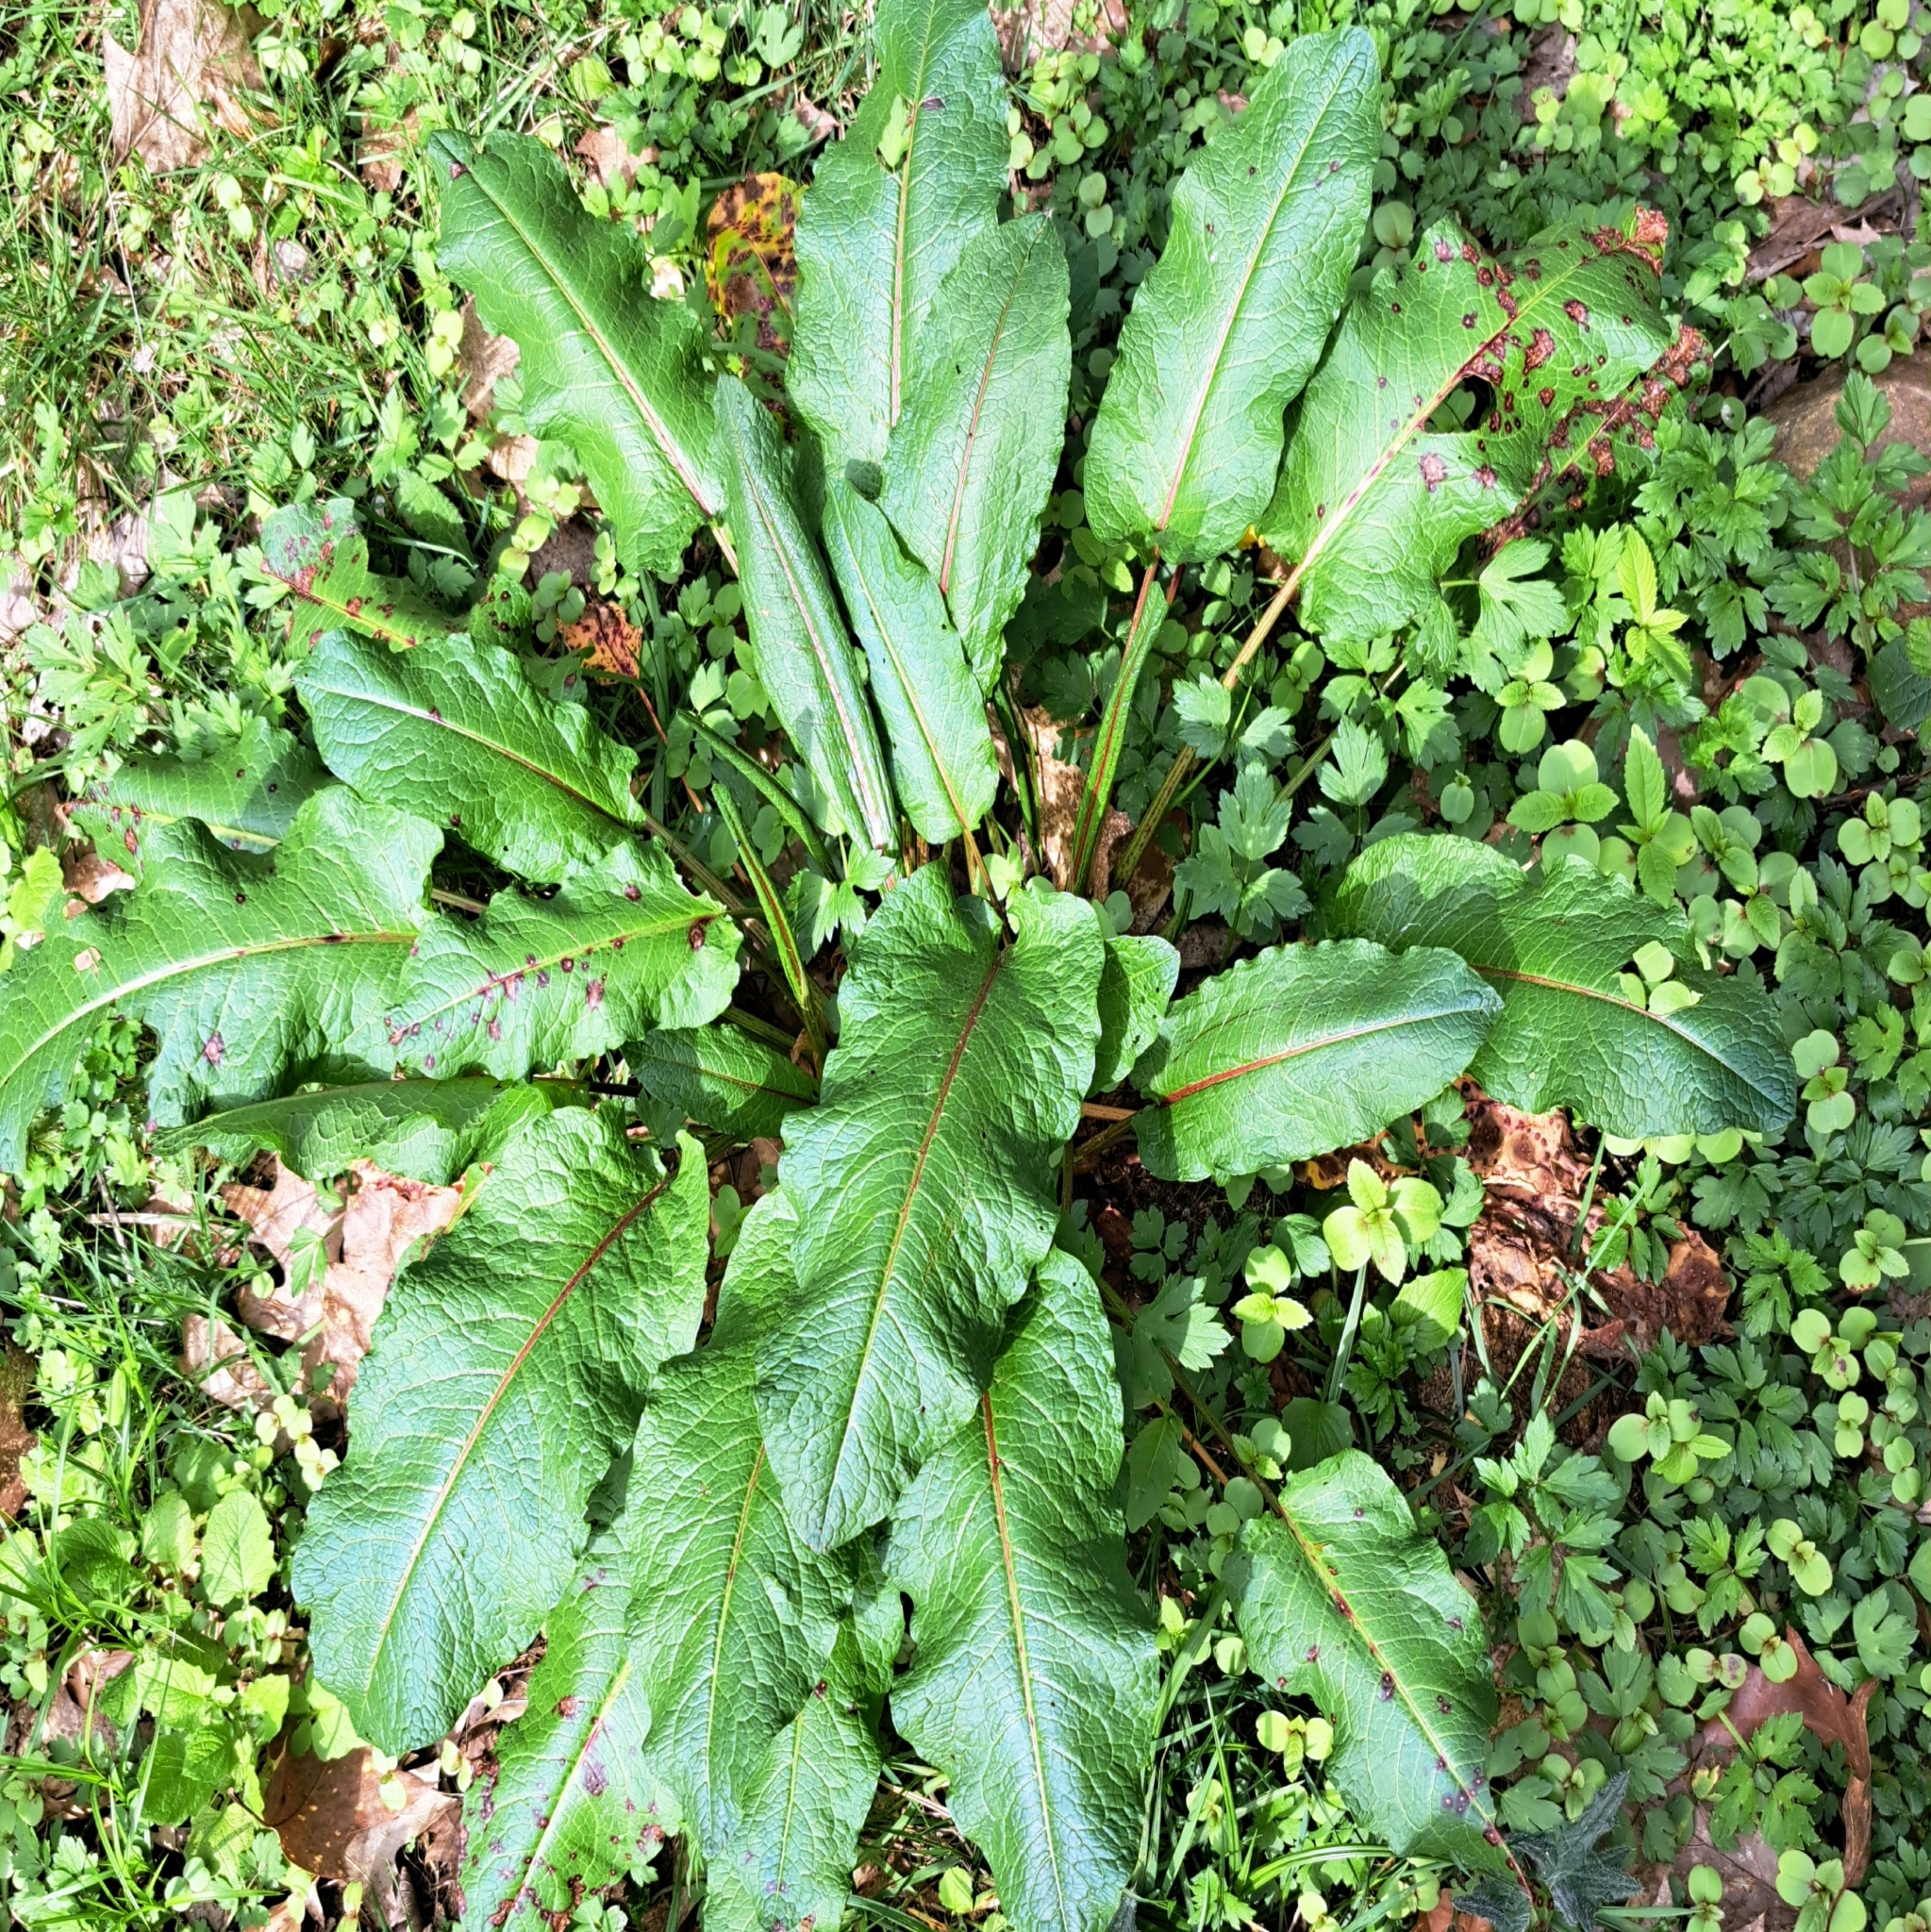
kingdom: Plantae
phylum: Tracheophyta
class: Magnoliopsida
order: Caryophyllales
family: Polygonaceae
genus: Rumex
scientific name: Rumex obtusifolius
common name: Bitter dock
